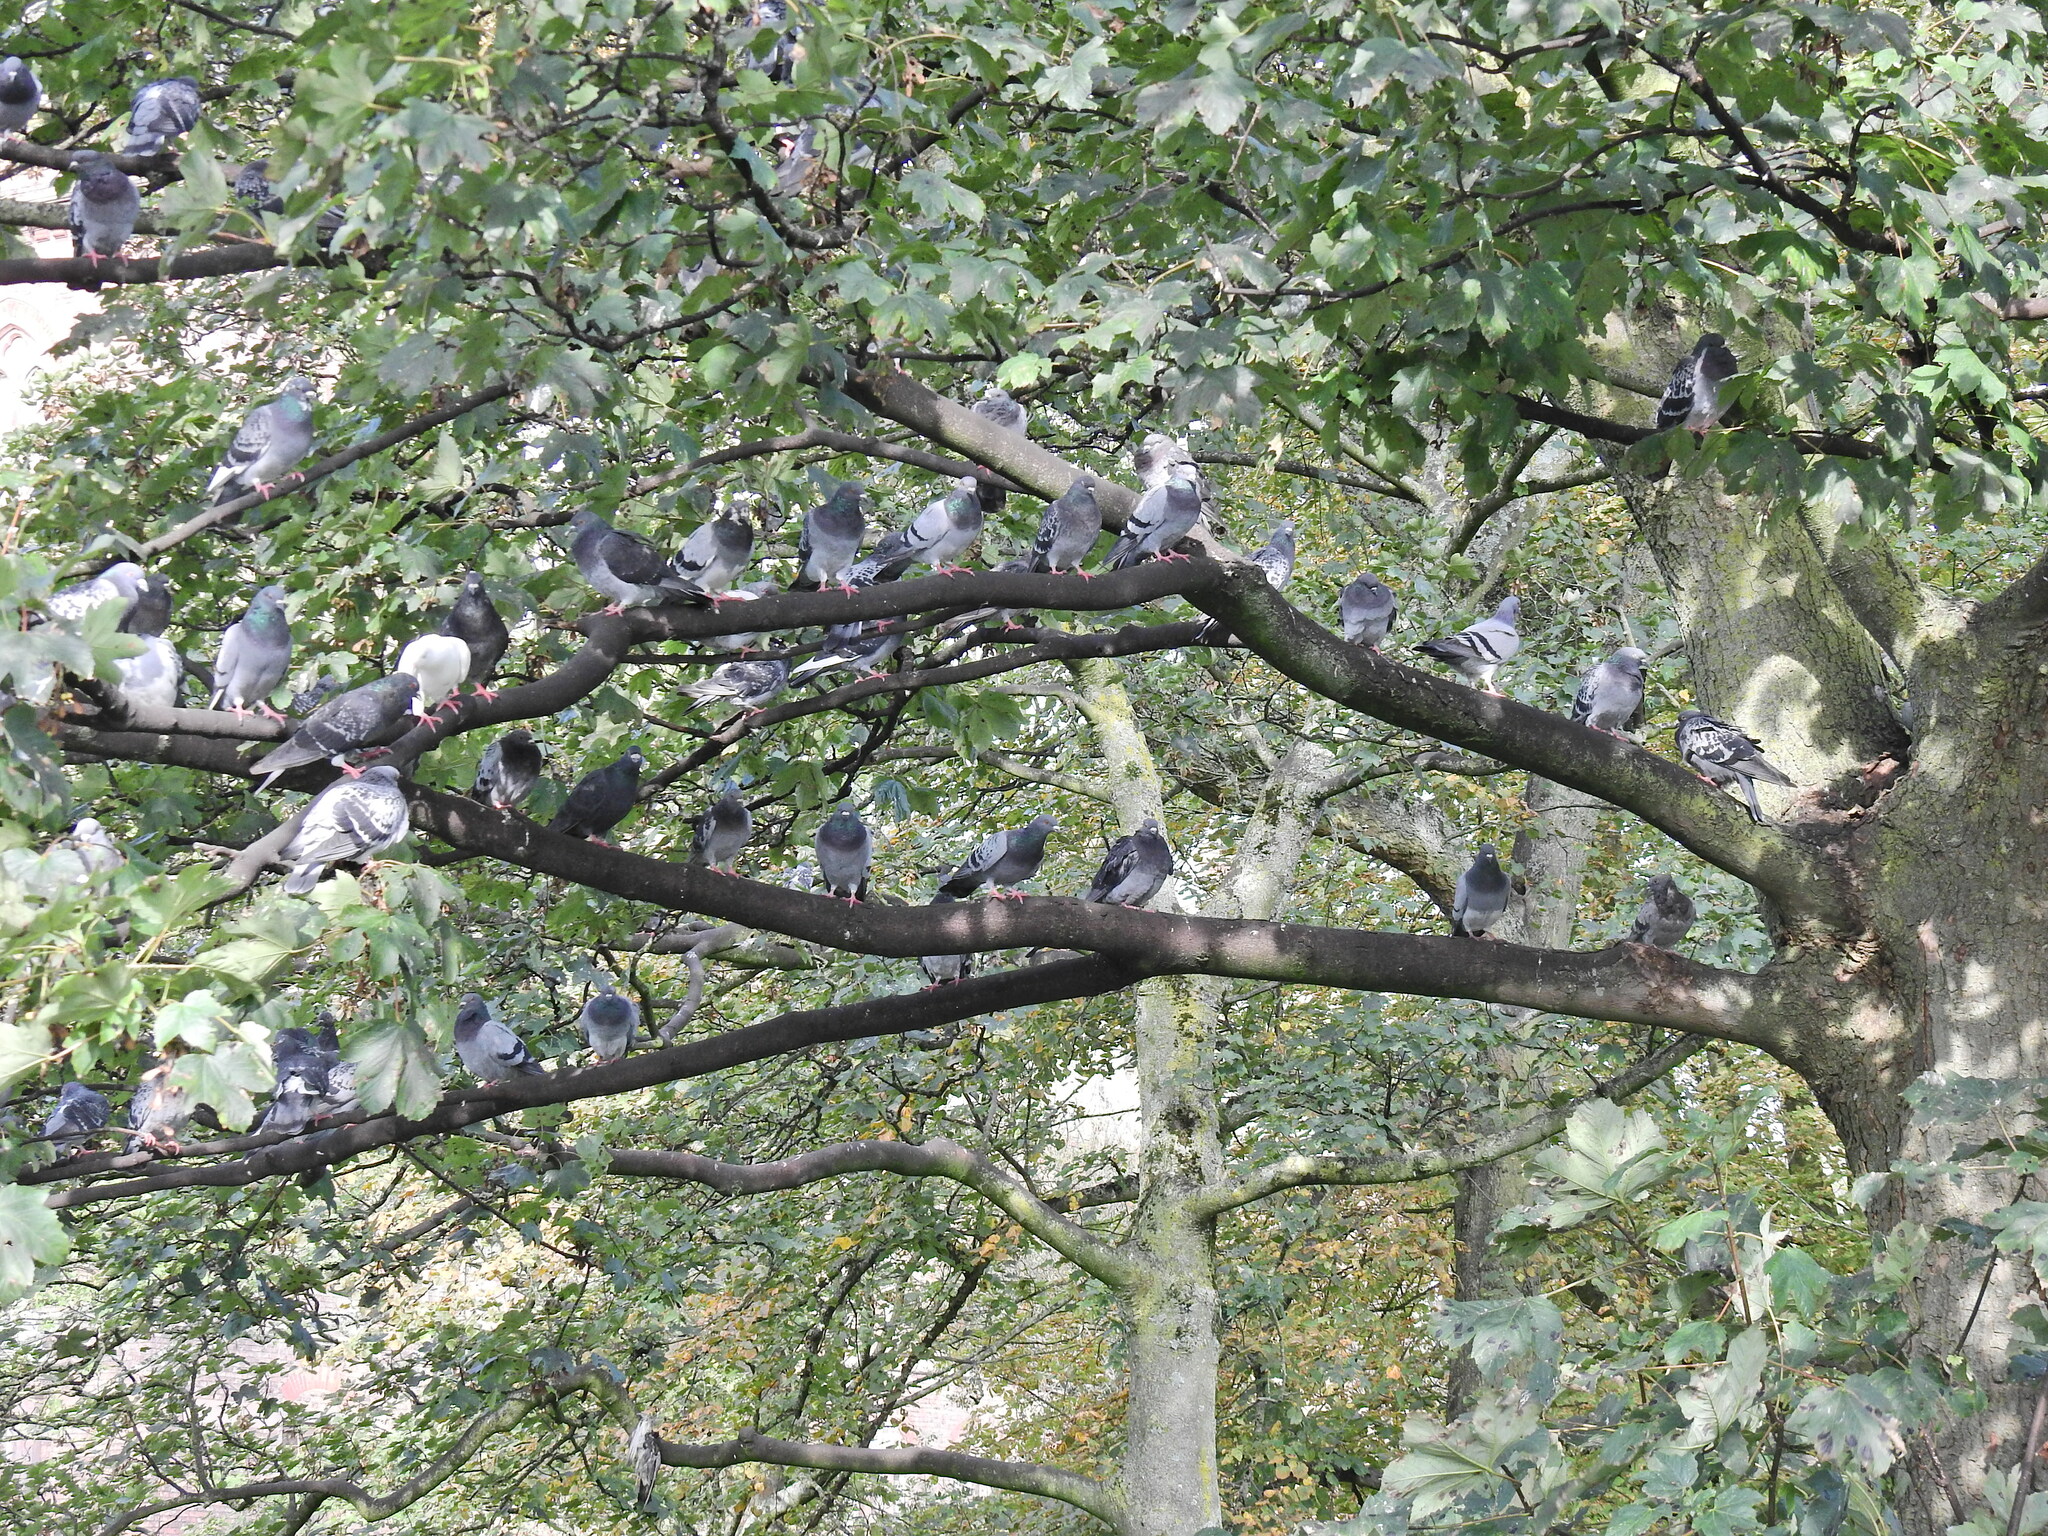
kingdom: Animalia
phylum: Chordata
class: Aves
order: Columbiformes
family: Columbidae
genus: Columba
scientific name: Columba livia
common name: Rock pigeon
